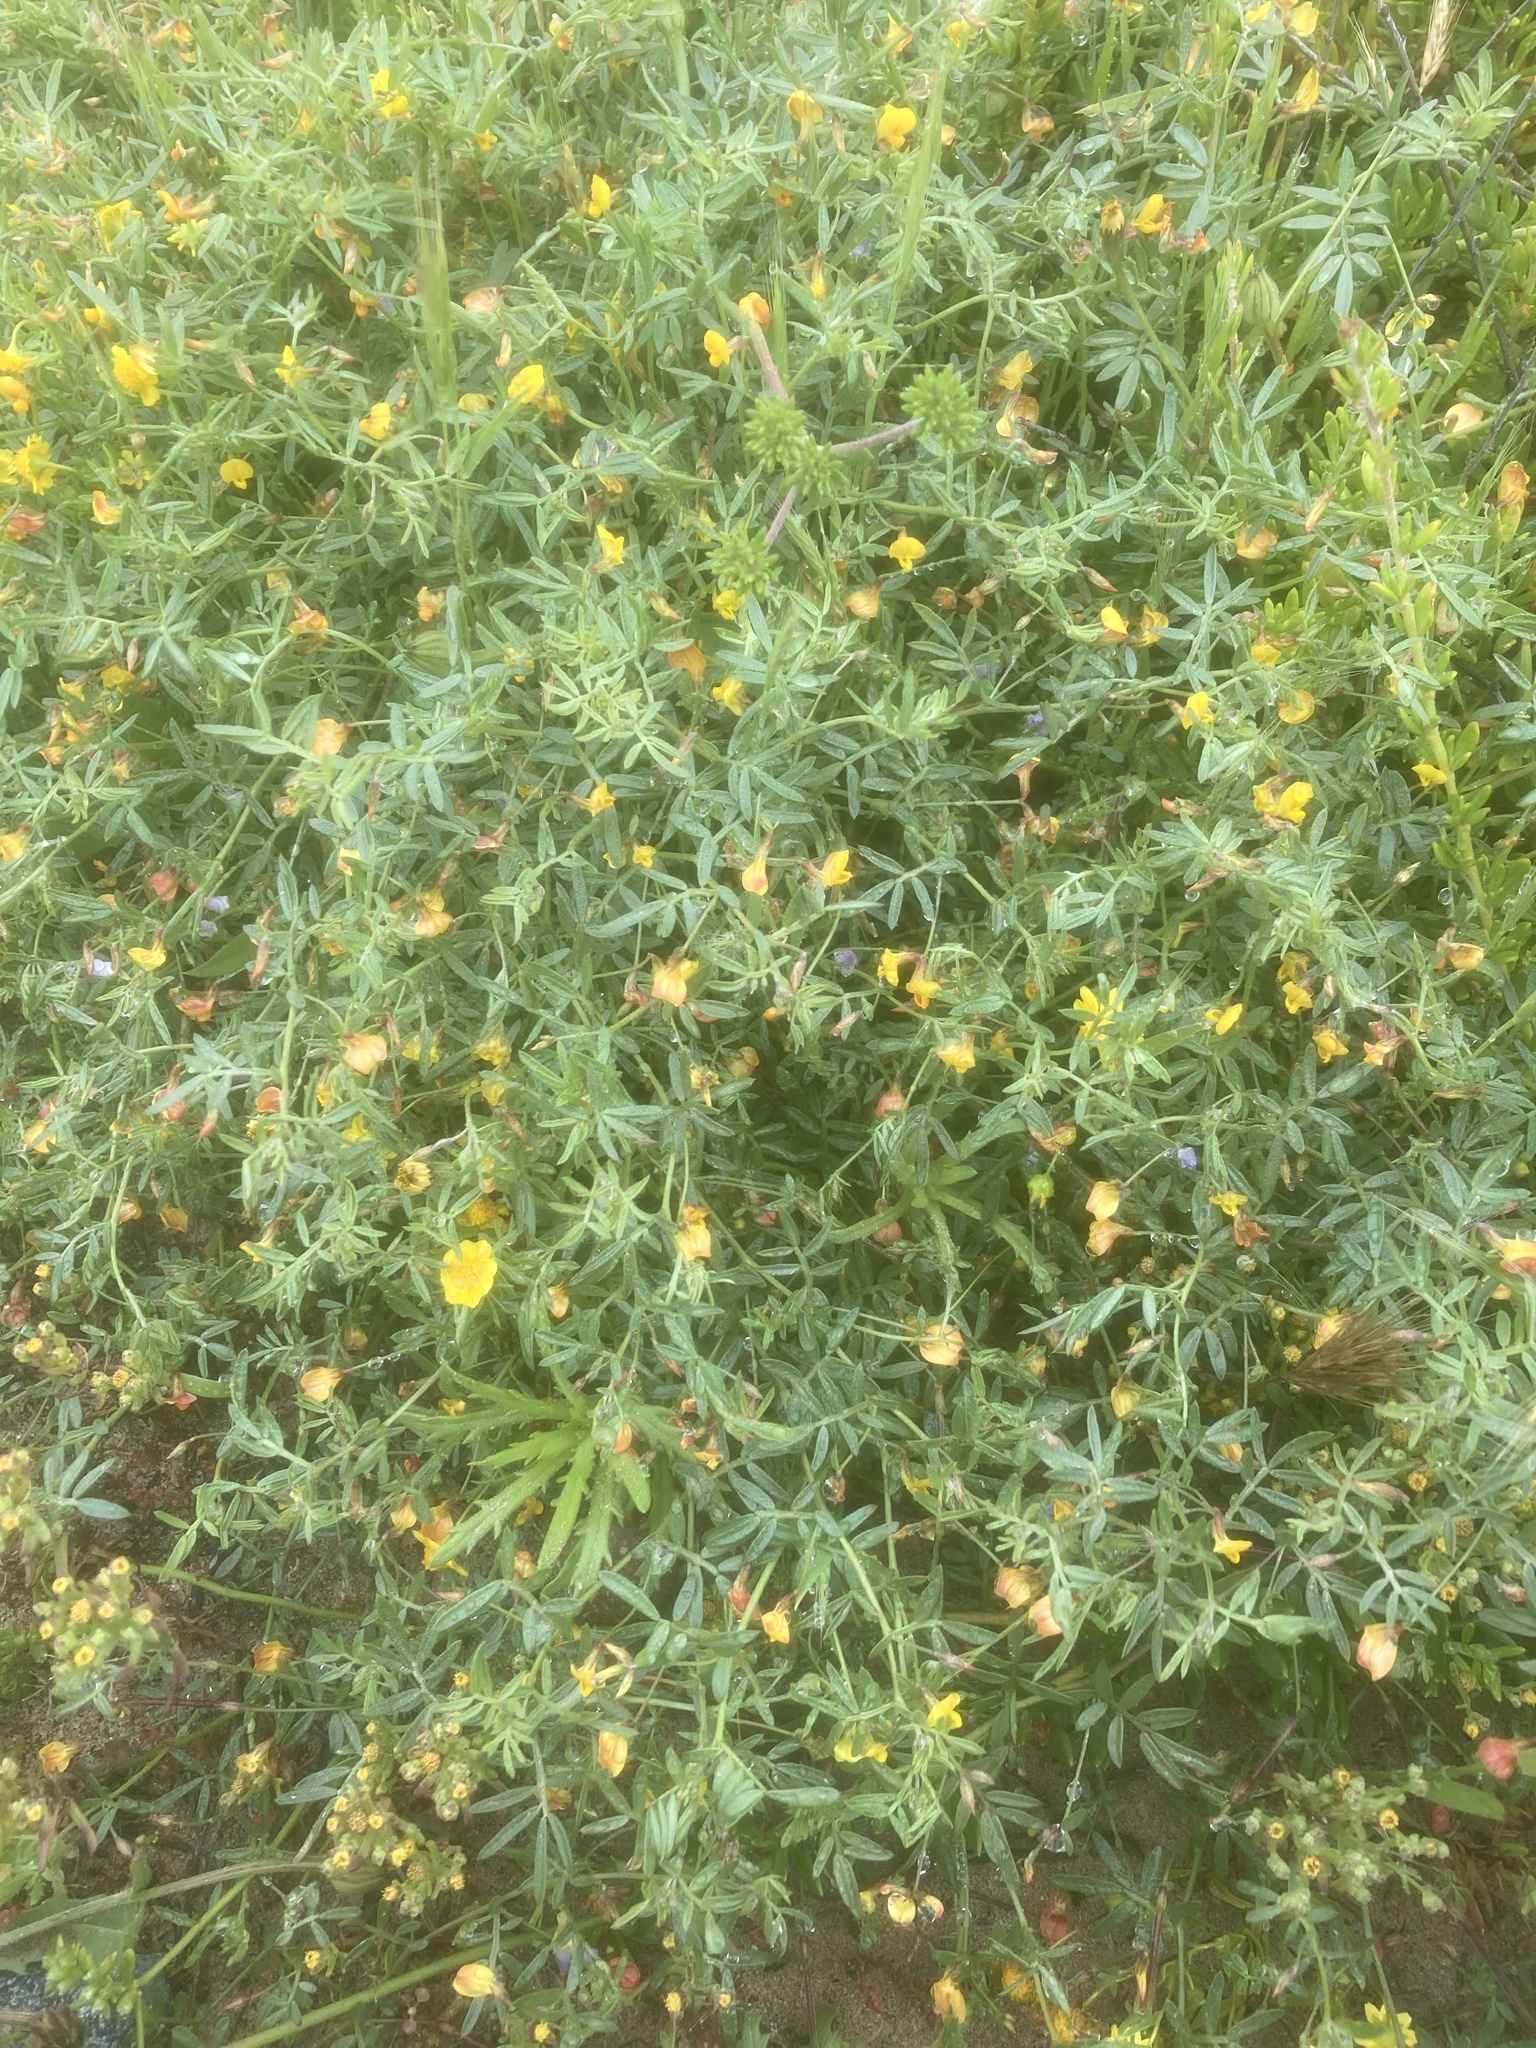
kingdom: Plantae
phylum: Tracheophyta
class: Magnoliopsida
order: Fabales
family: Fabaceae
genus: Acmispon
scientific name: Acmispon strigosus
